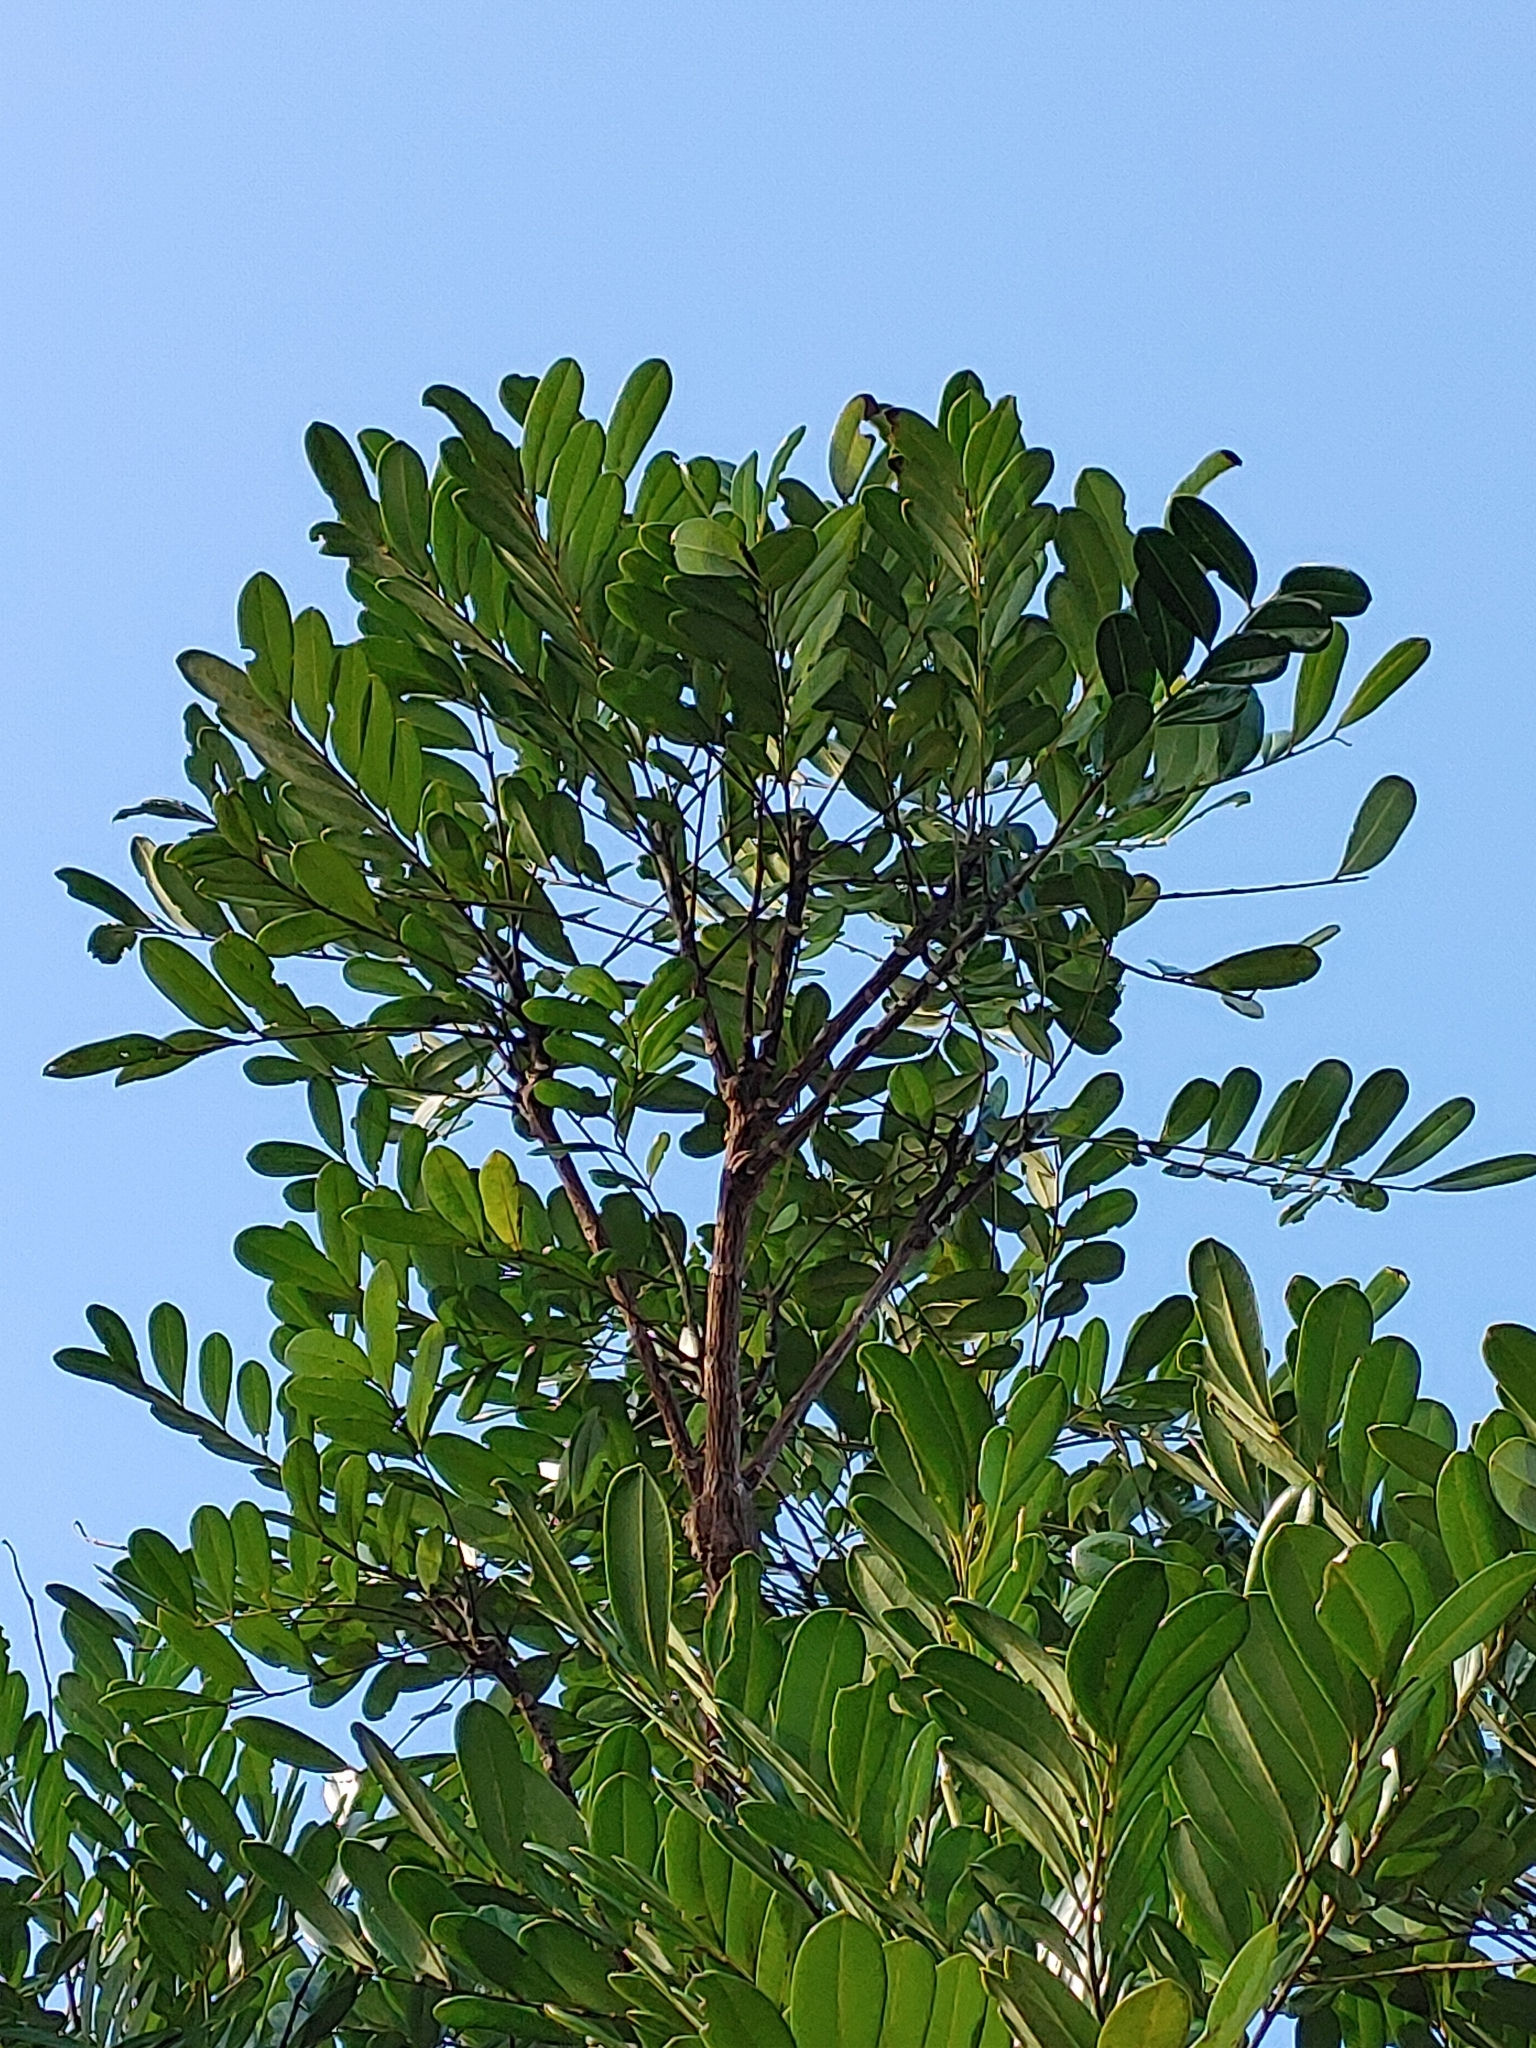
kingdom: Plantae
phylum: Tracheophyta
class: Magnoliopsida
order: Sapindales
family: Simaroubaceae
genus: Simarouba
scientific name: Simarouba glauca
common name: Dysentery-bark
